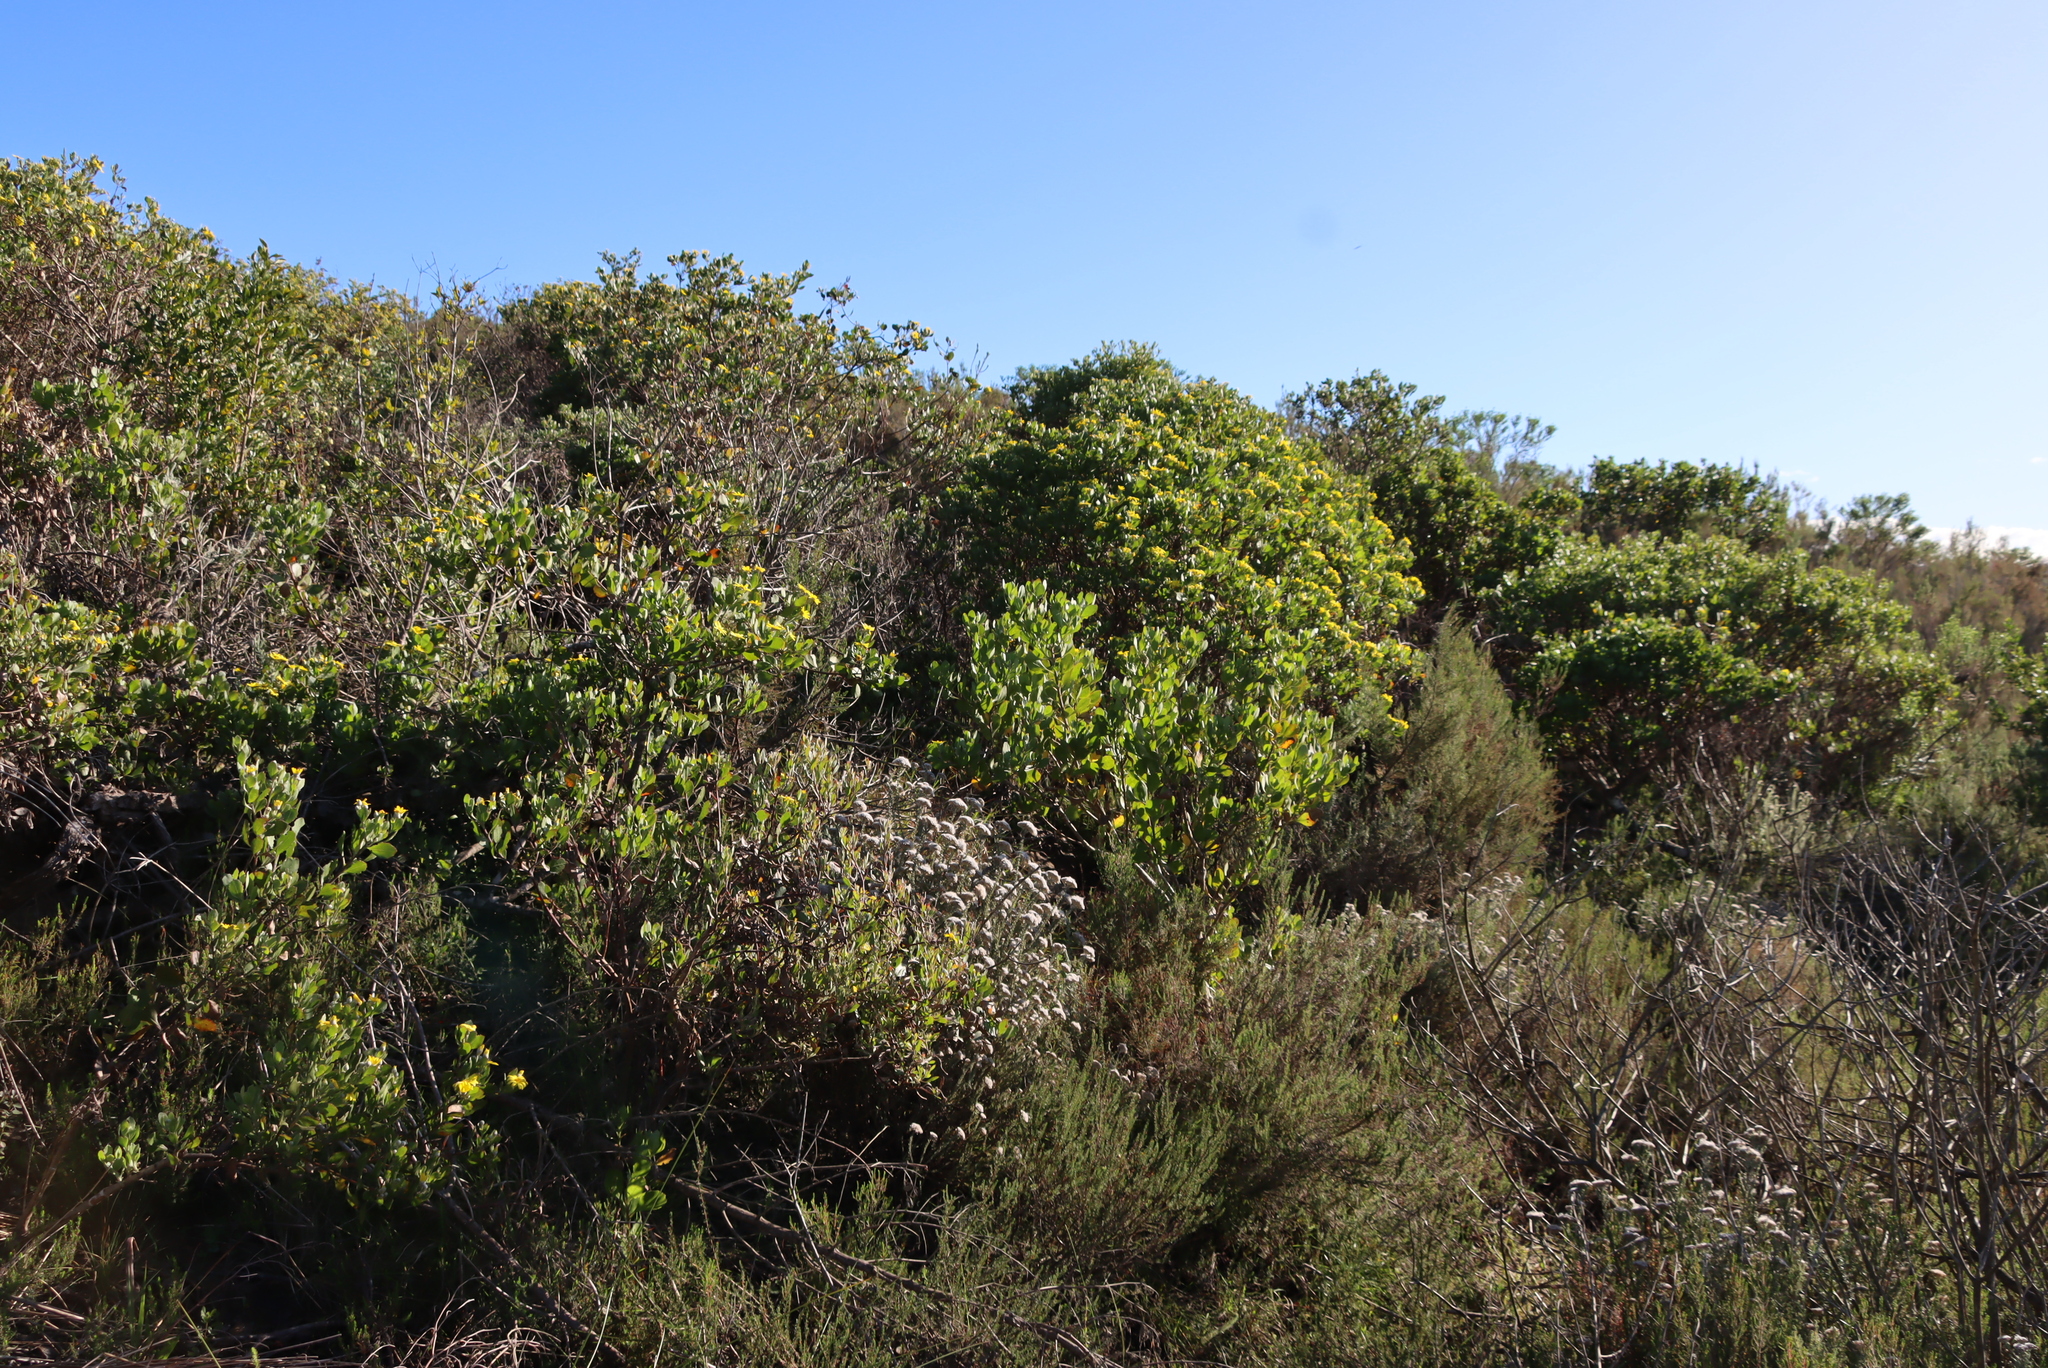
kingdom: Plantae
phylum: Tracheophyta
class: Magnoliopsida
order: Asterales
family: Asteraceae
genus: Osteospermum
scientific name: Osteospermum moniliferum
